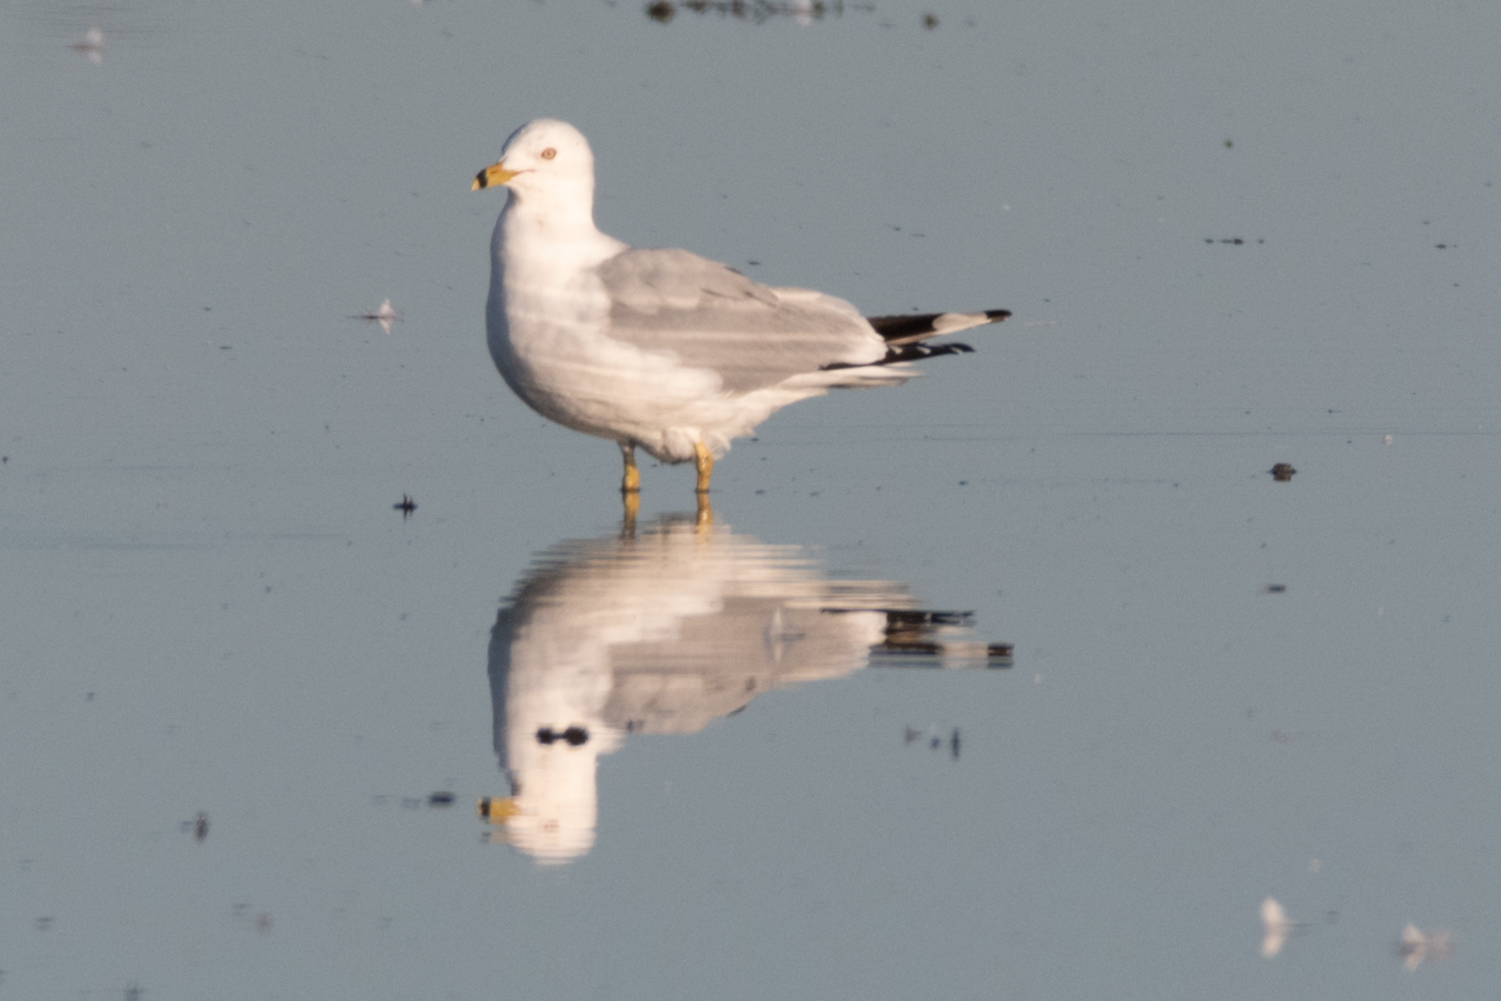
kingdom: Animalia
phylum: Chordata
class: Aves
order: Charadriiformes
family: Laridae
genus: Larus
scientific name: Larus delawarensis
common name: Ring-billed gull
